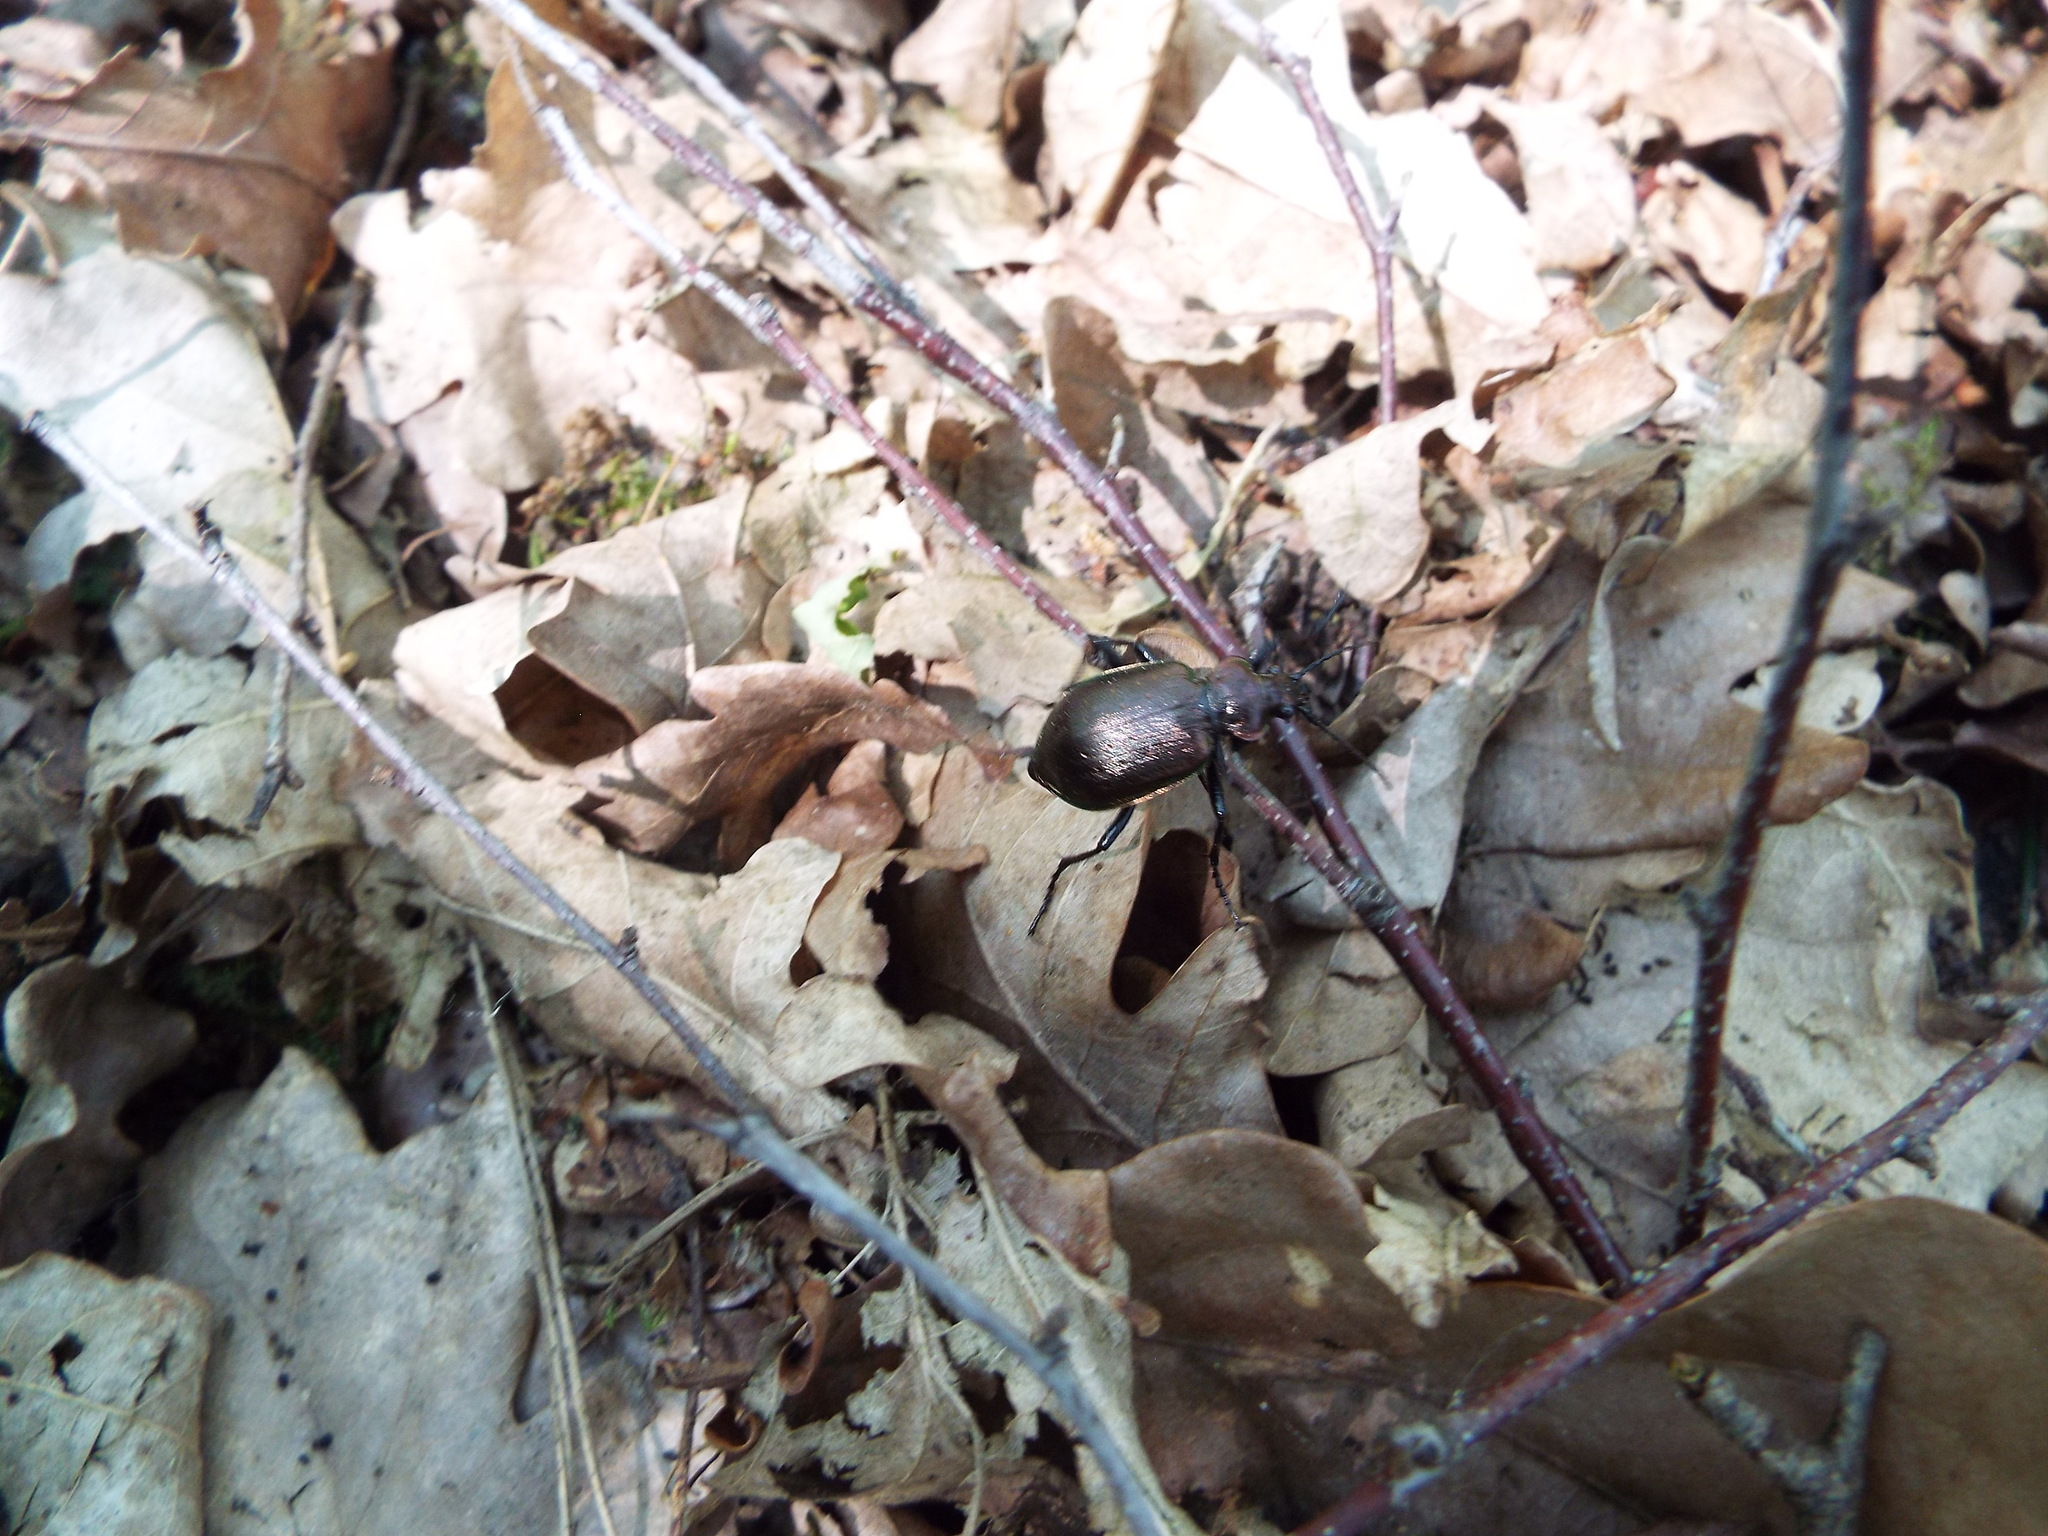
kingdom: Animalia
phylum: Arthropoda
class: Insecta
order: Coleoptera
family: Carabidae
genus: Calosoma
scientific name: Calosoma inquisitor
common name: Caterpillar-hunter
